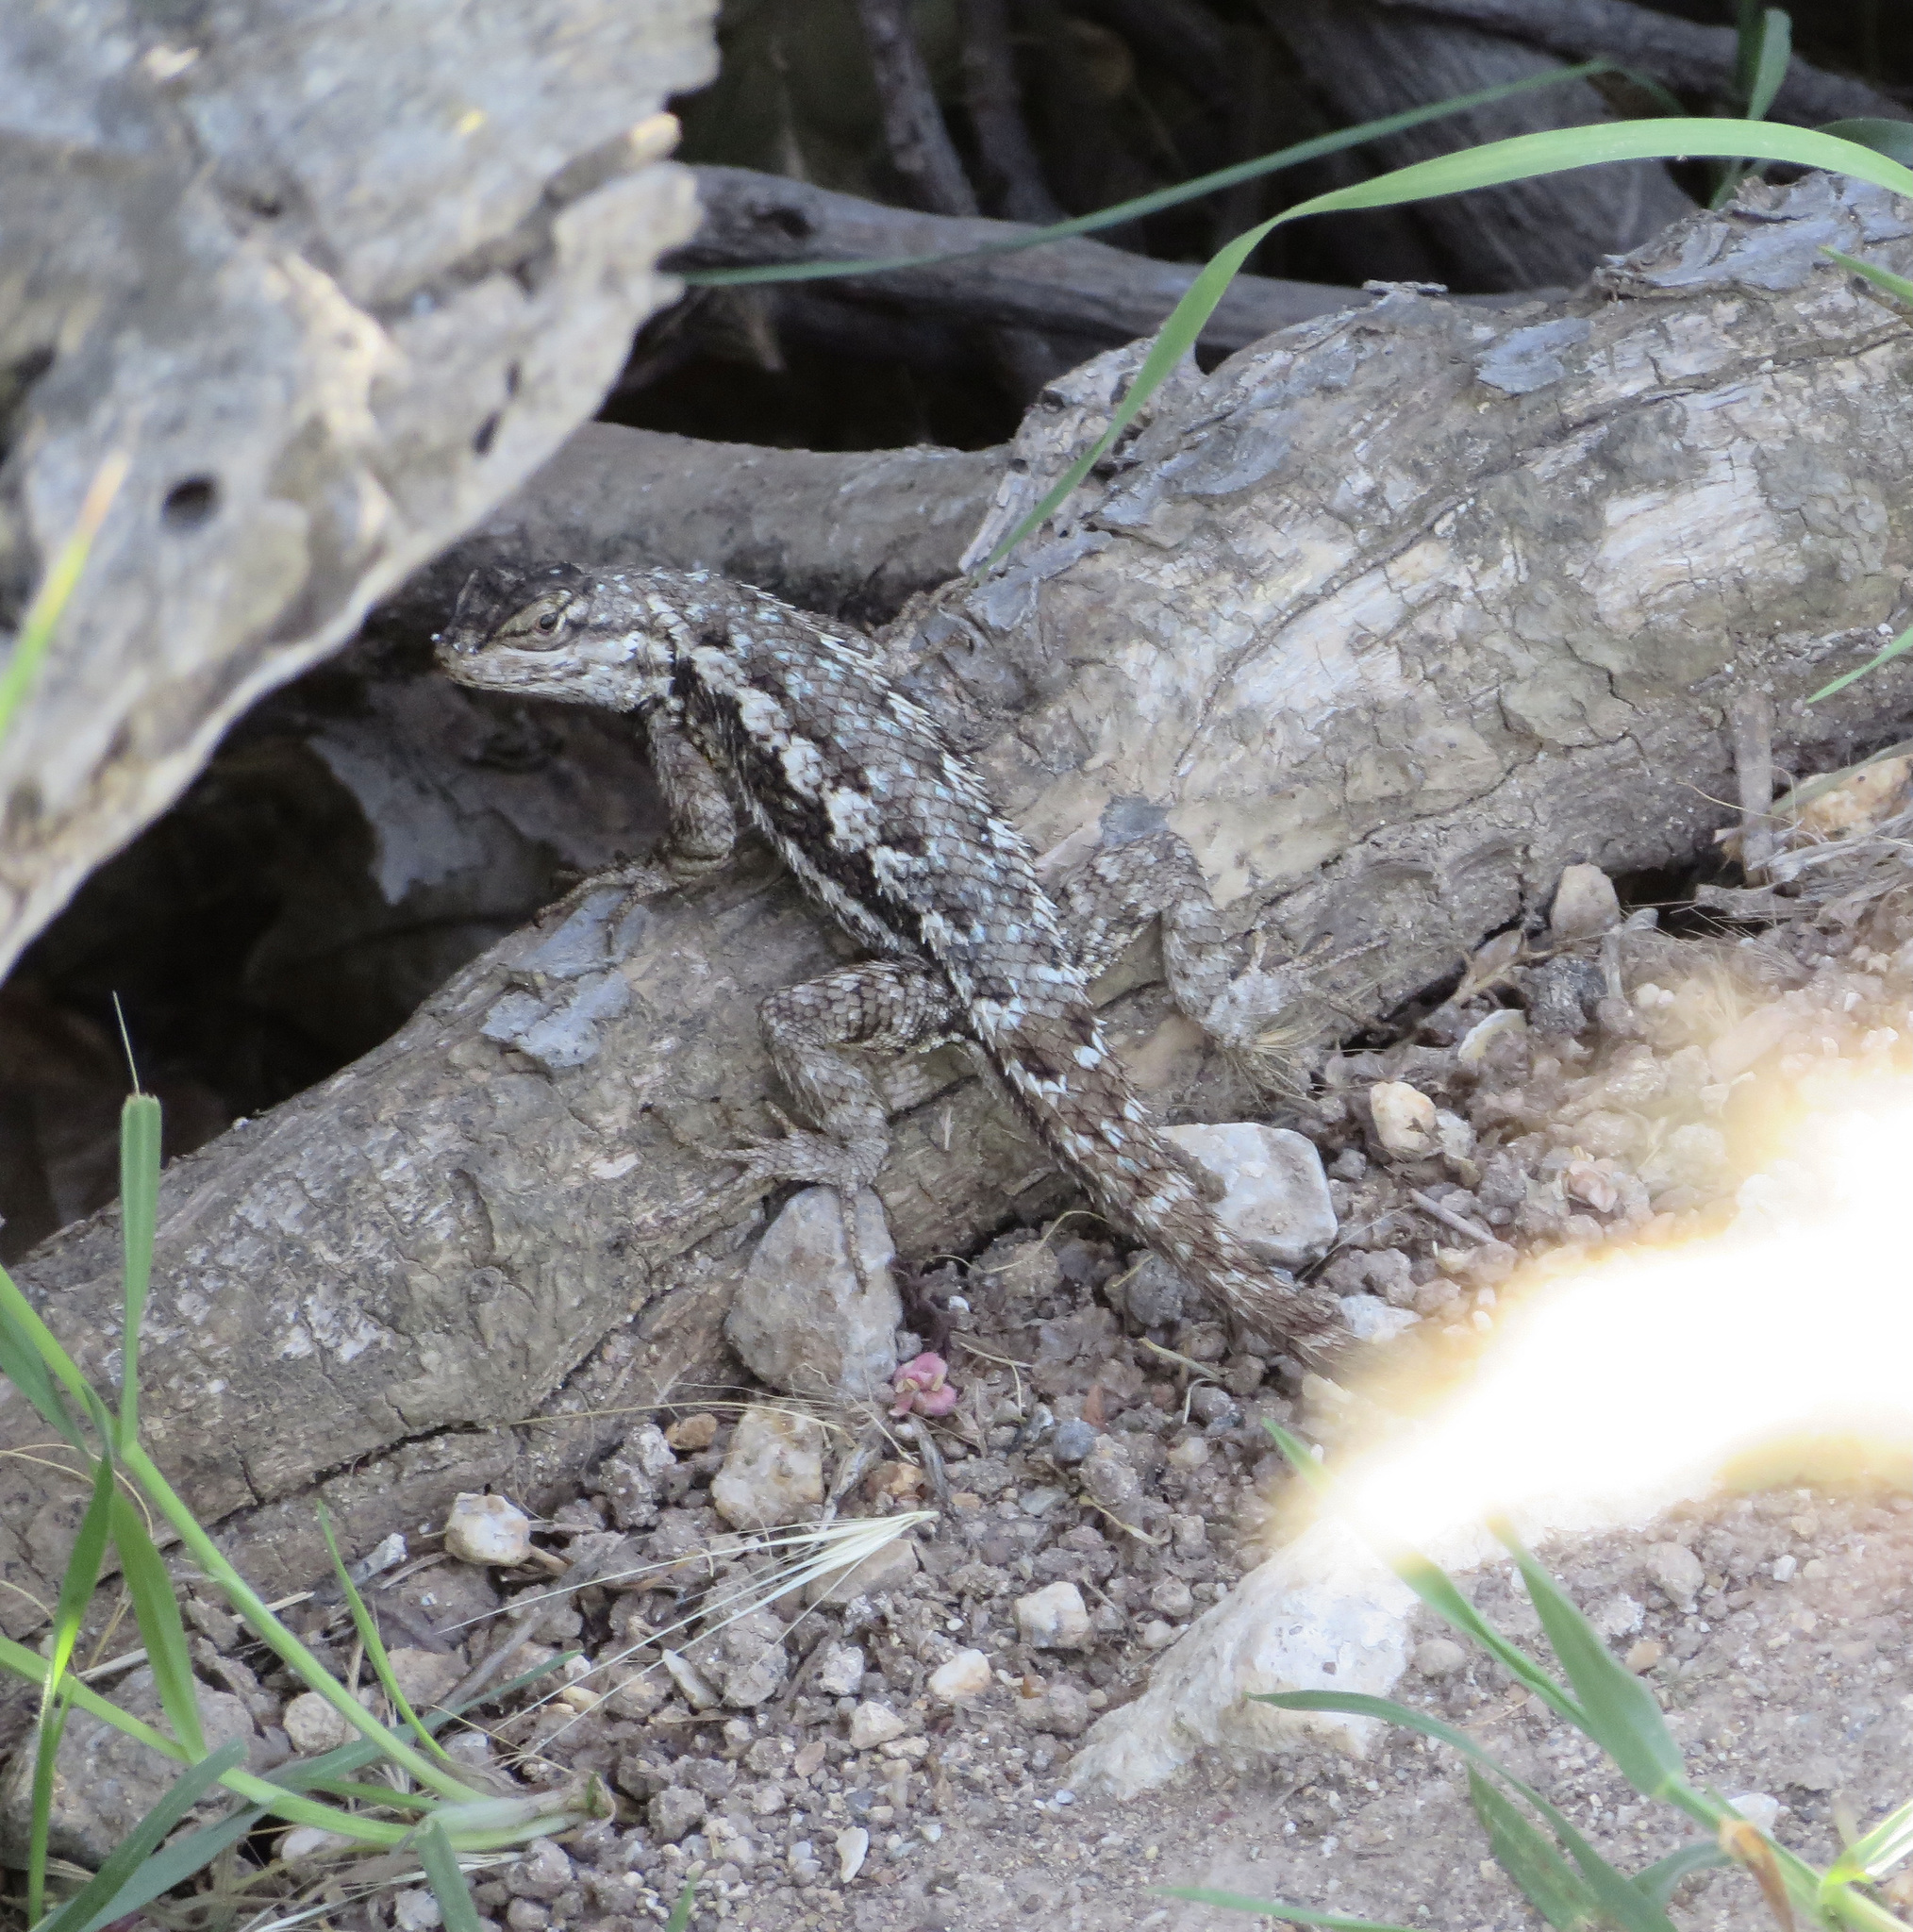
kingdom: Animalia
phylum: Chordata
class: Squamata
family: Phrynosomatidae
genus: Sceloporus
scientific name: Sceloporus occidentalis
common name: Western fence lizard
